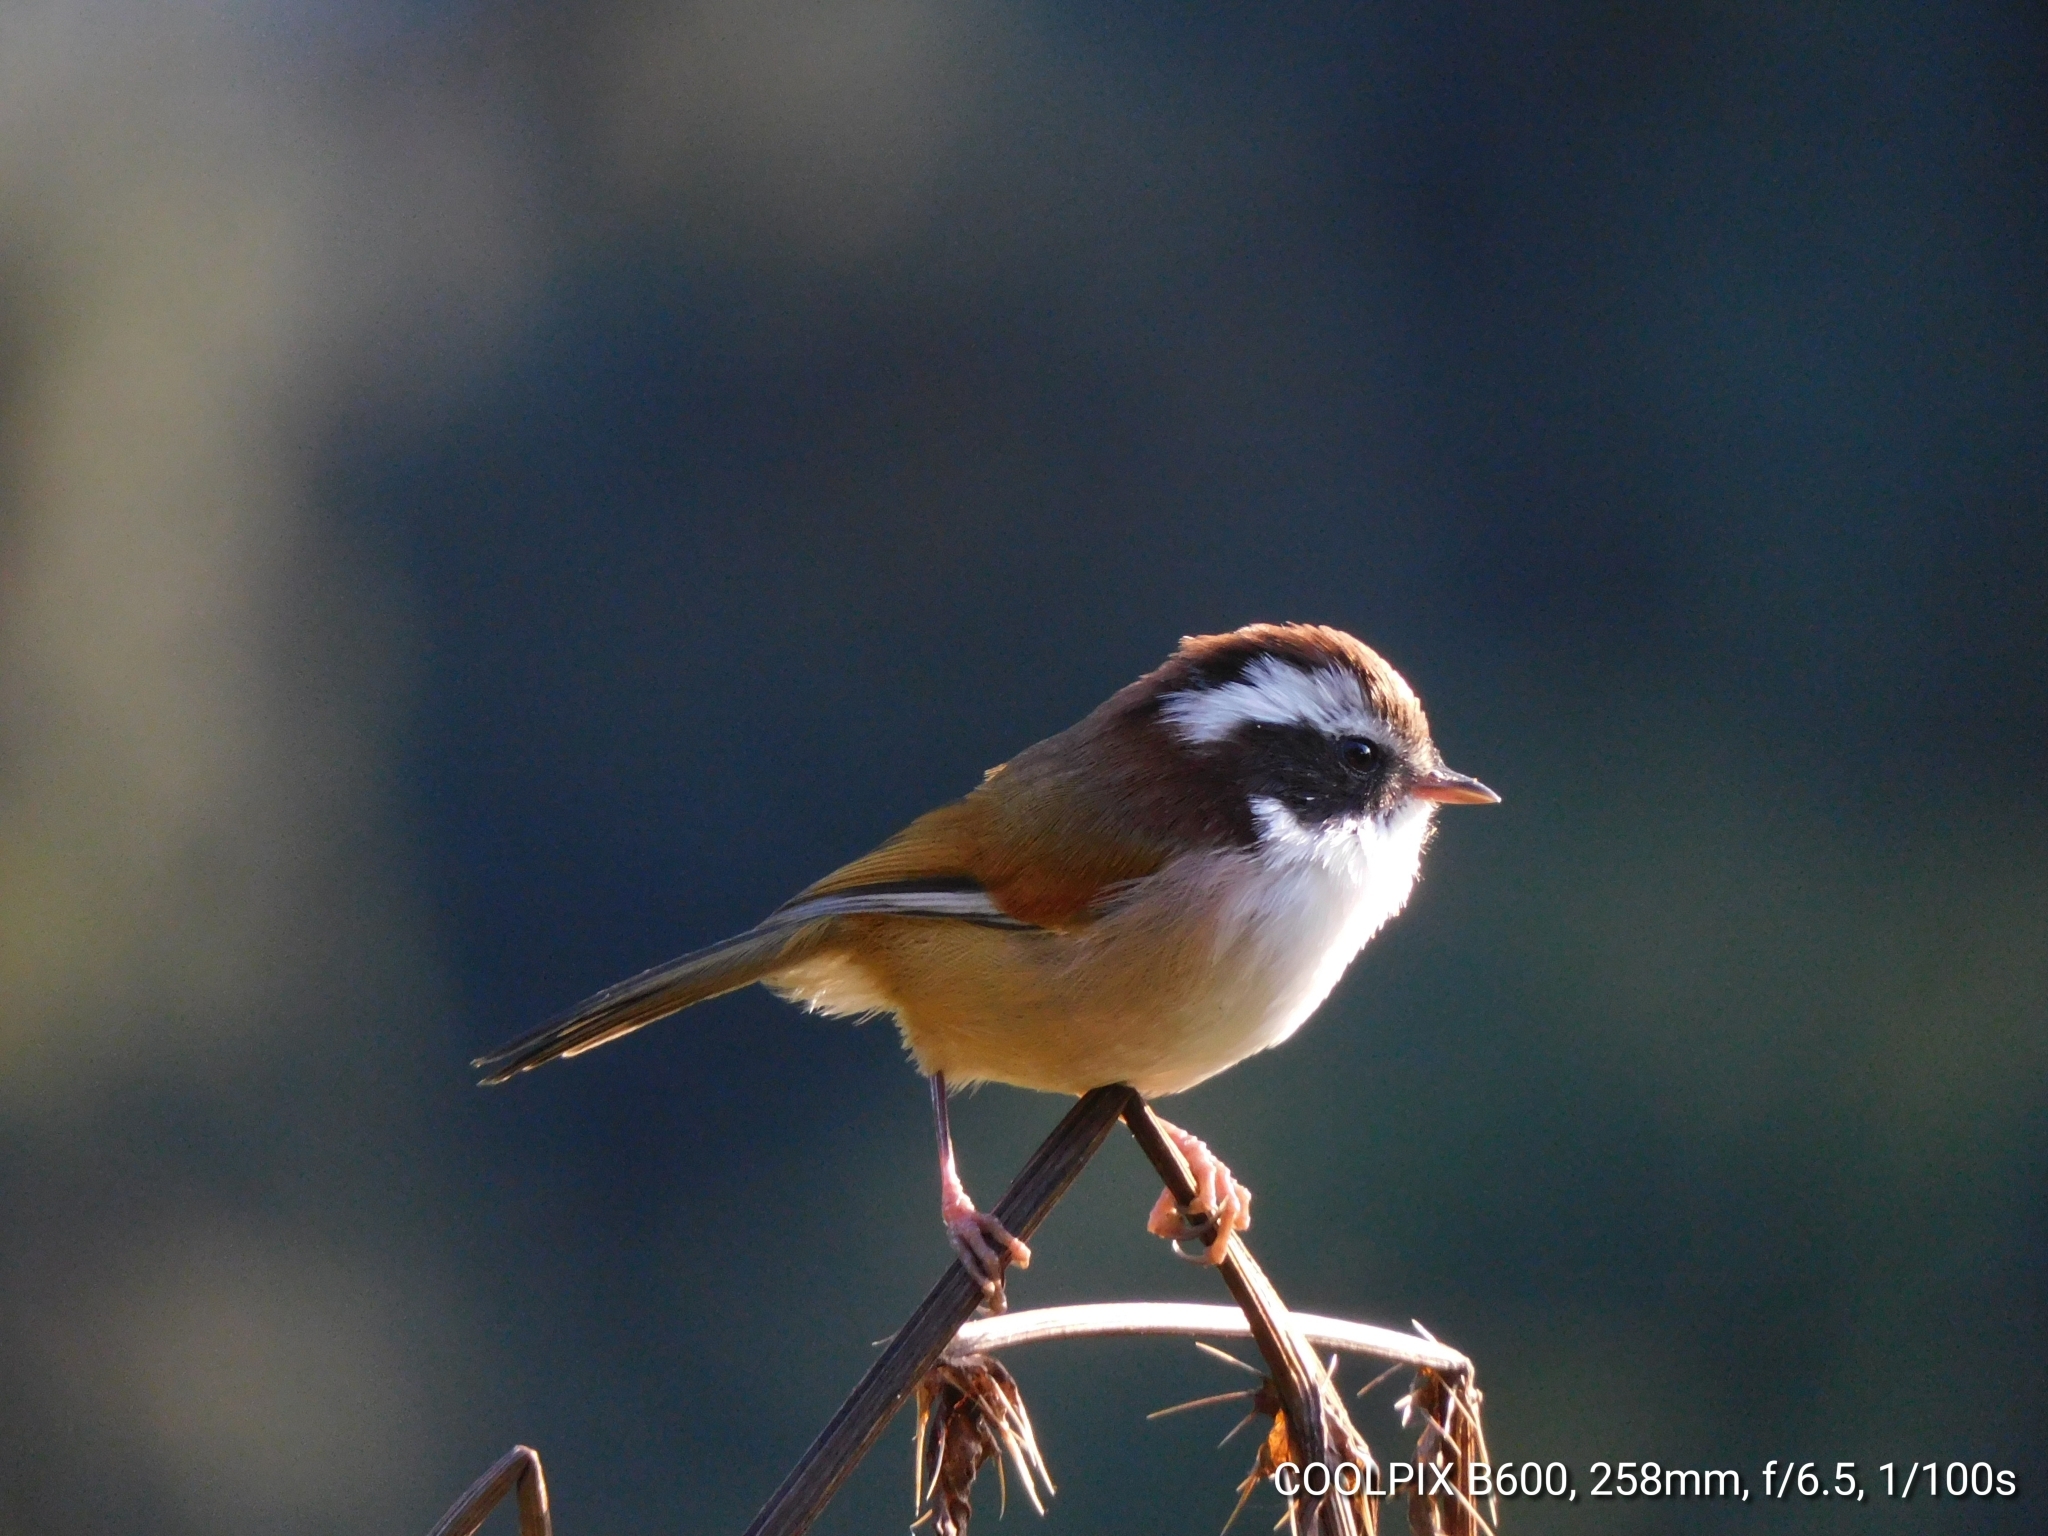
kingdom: Animalia
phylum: Chordata
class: Aves
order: Passeriformes
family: Sylviidae
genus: Fulvetta
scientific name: Fulvetta vinipectus
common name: White-browed fulvetta
